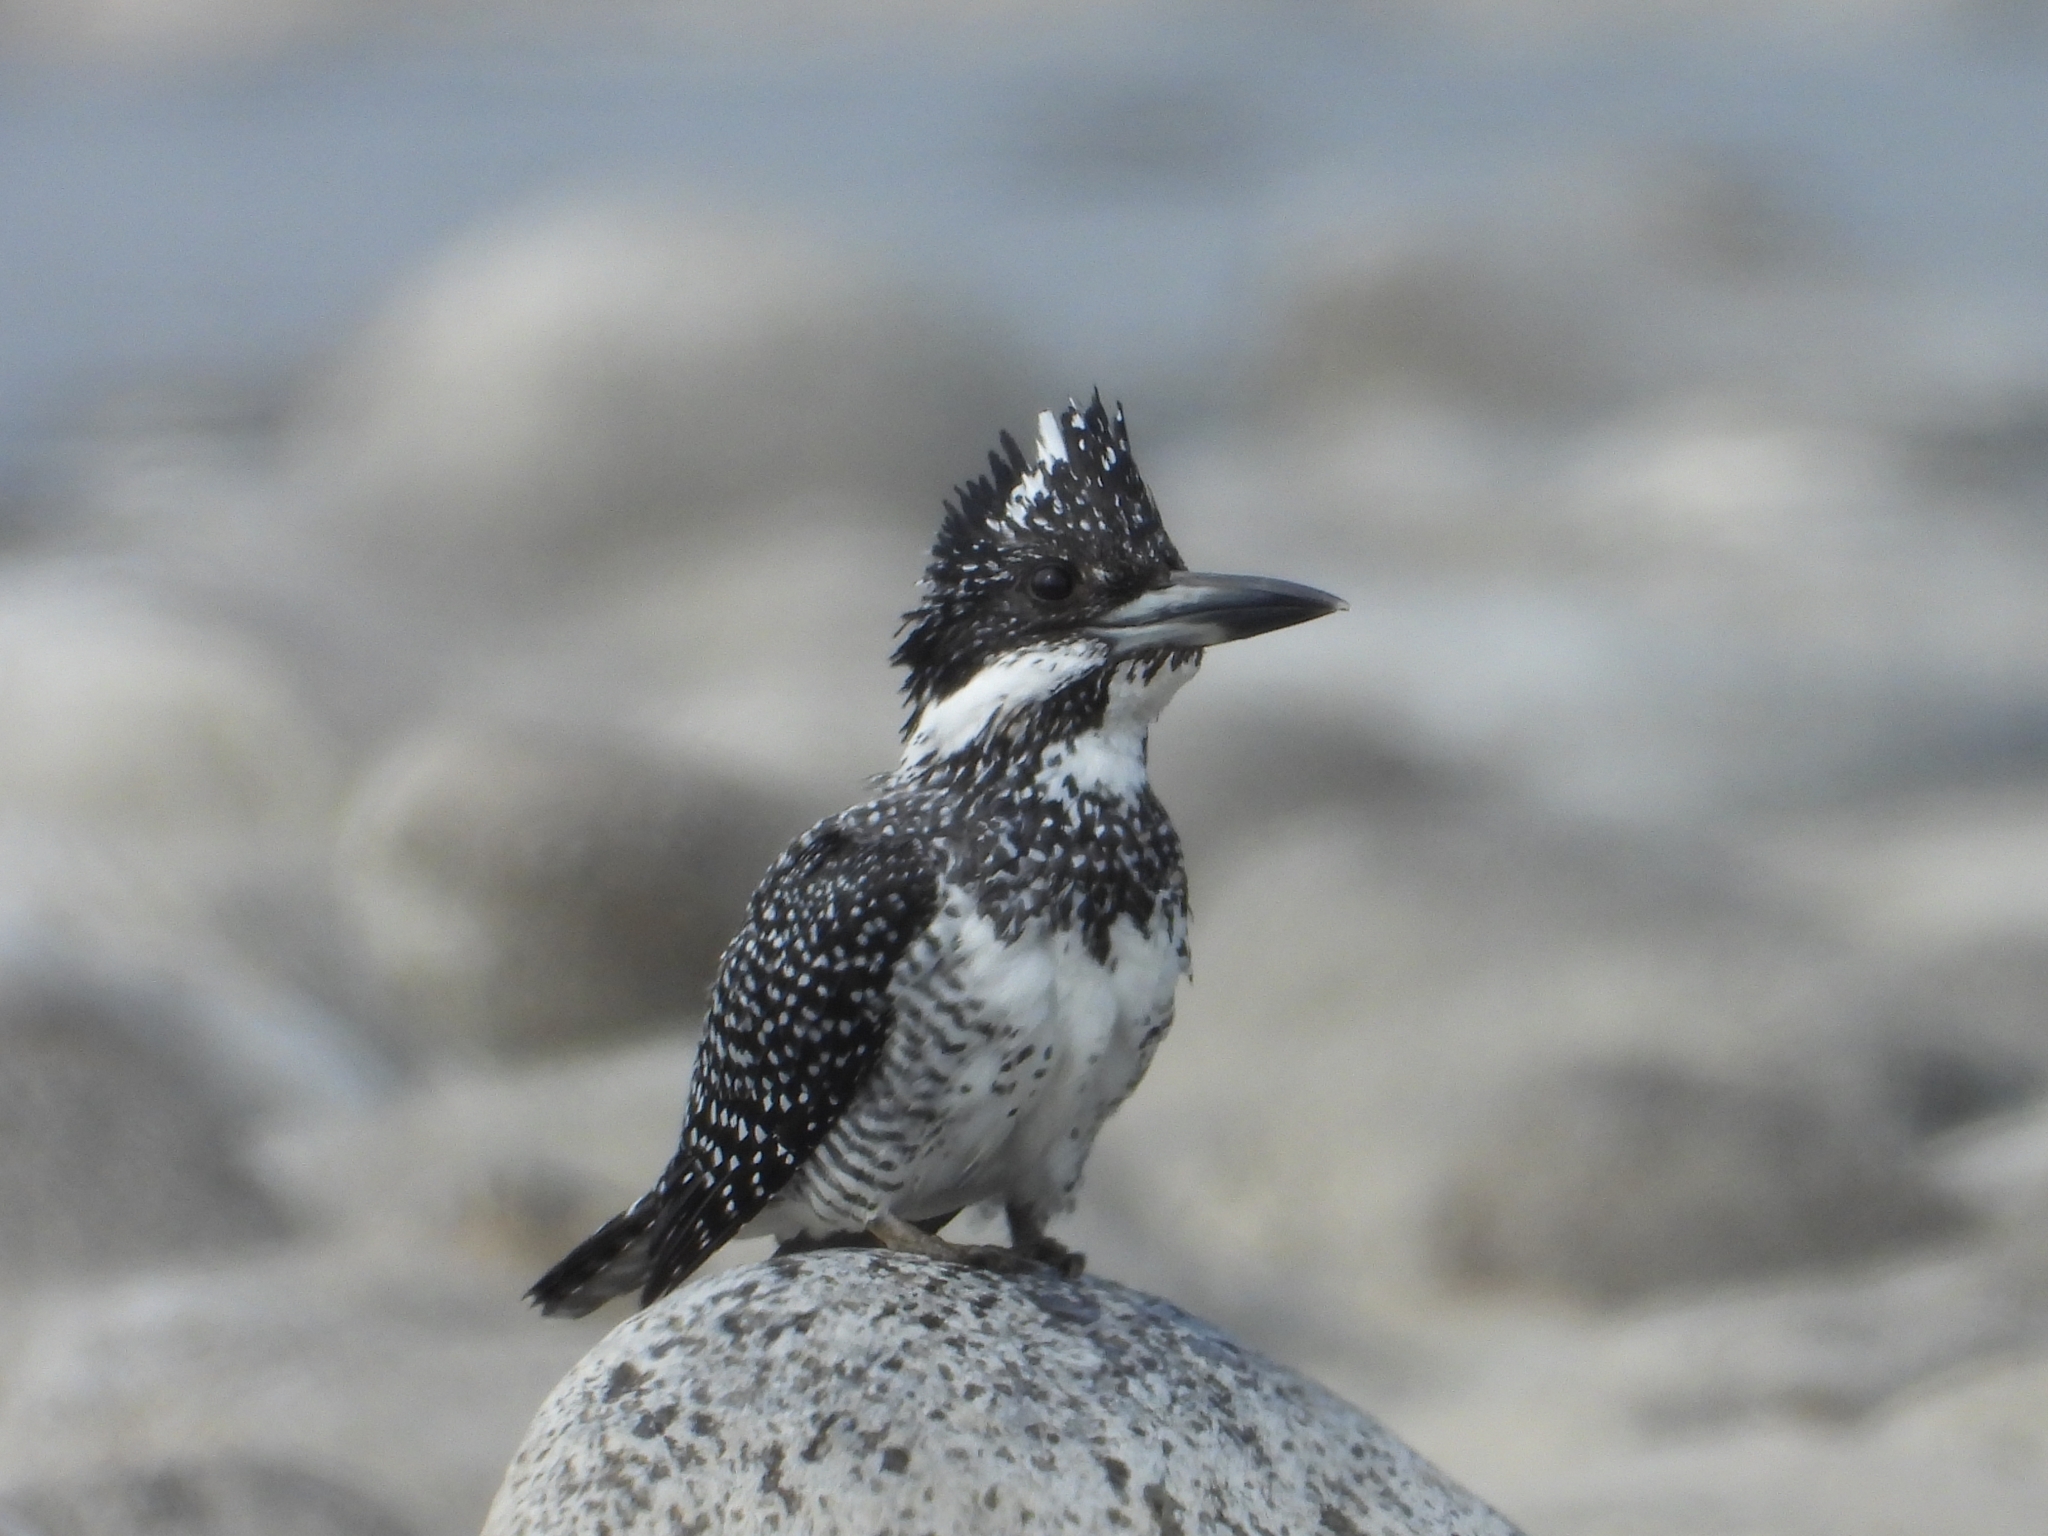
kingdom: Animalia
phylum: Chordata
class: Aves
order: Coraciiformes
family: Alcedinidae
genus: Megaceryle
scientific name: Megaceryle lugubris
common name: Crested kingfisher
